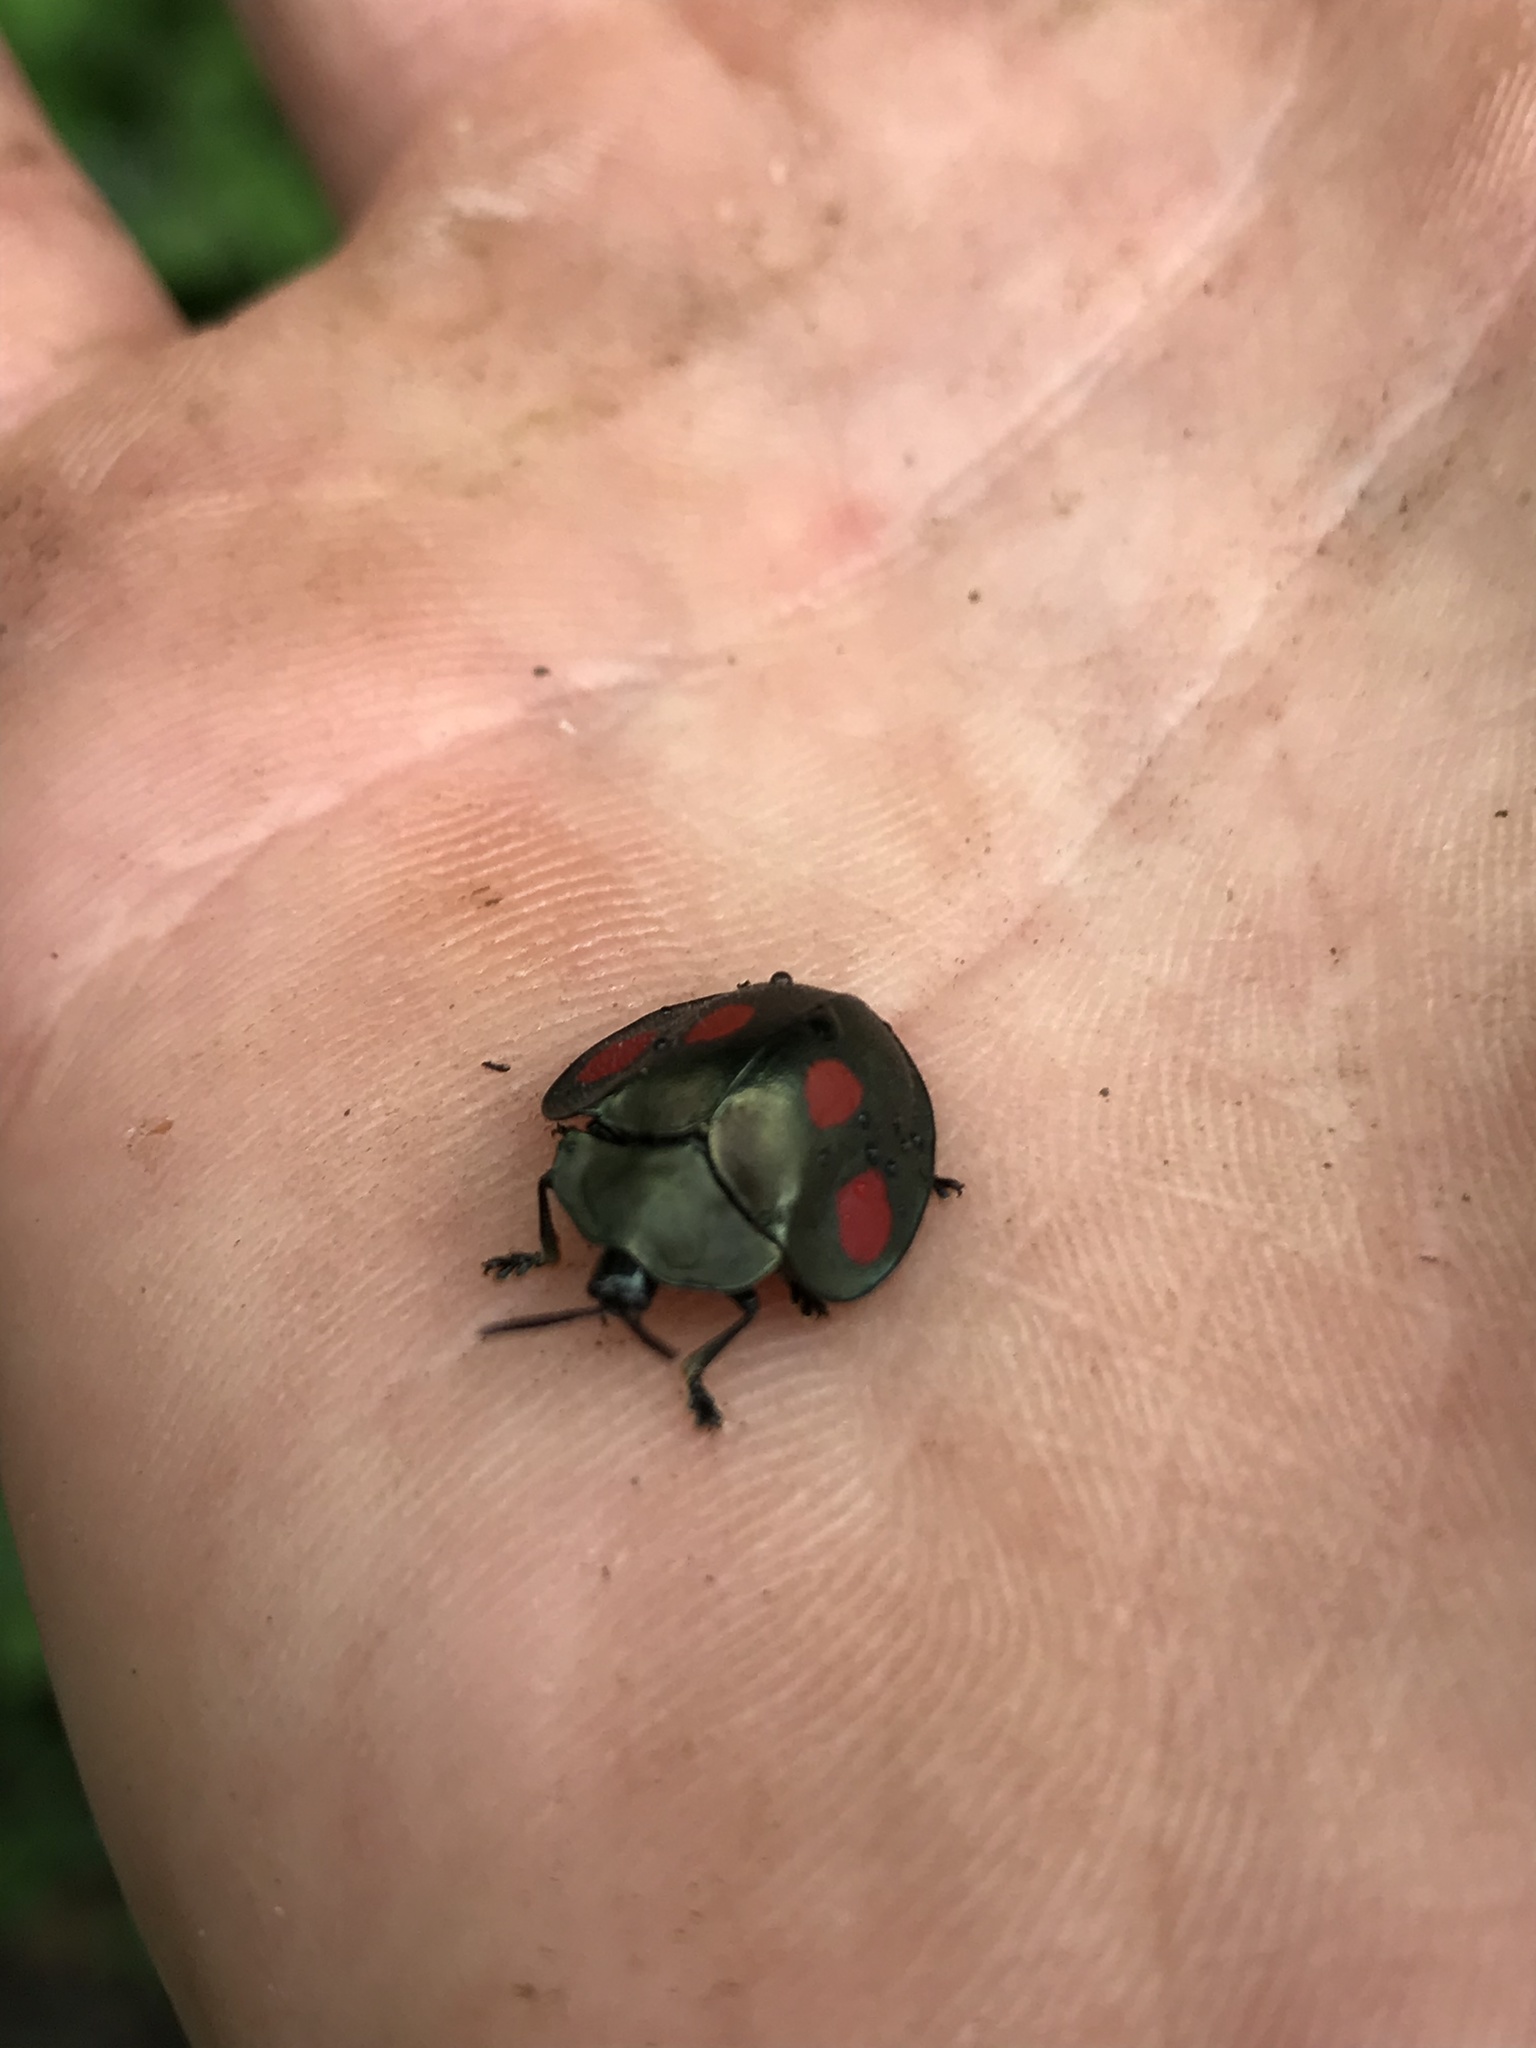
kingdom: Animalia
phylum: Arthropoda
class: Insecta
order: Coleoptera
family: Chrysomelidae
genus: Stolas
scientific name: Stolas lebasii
